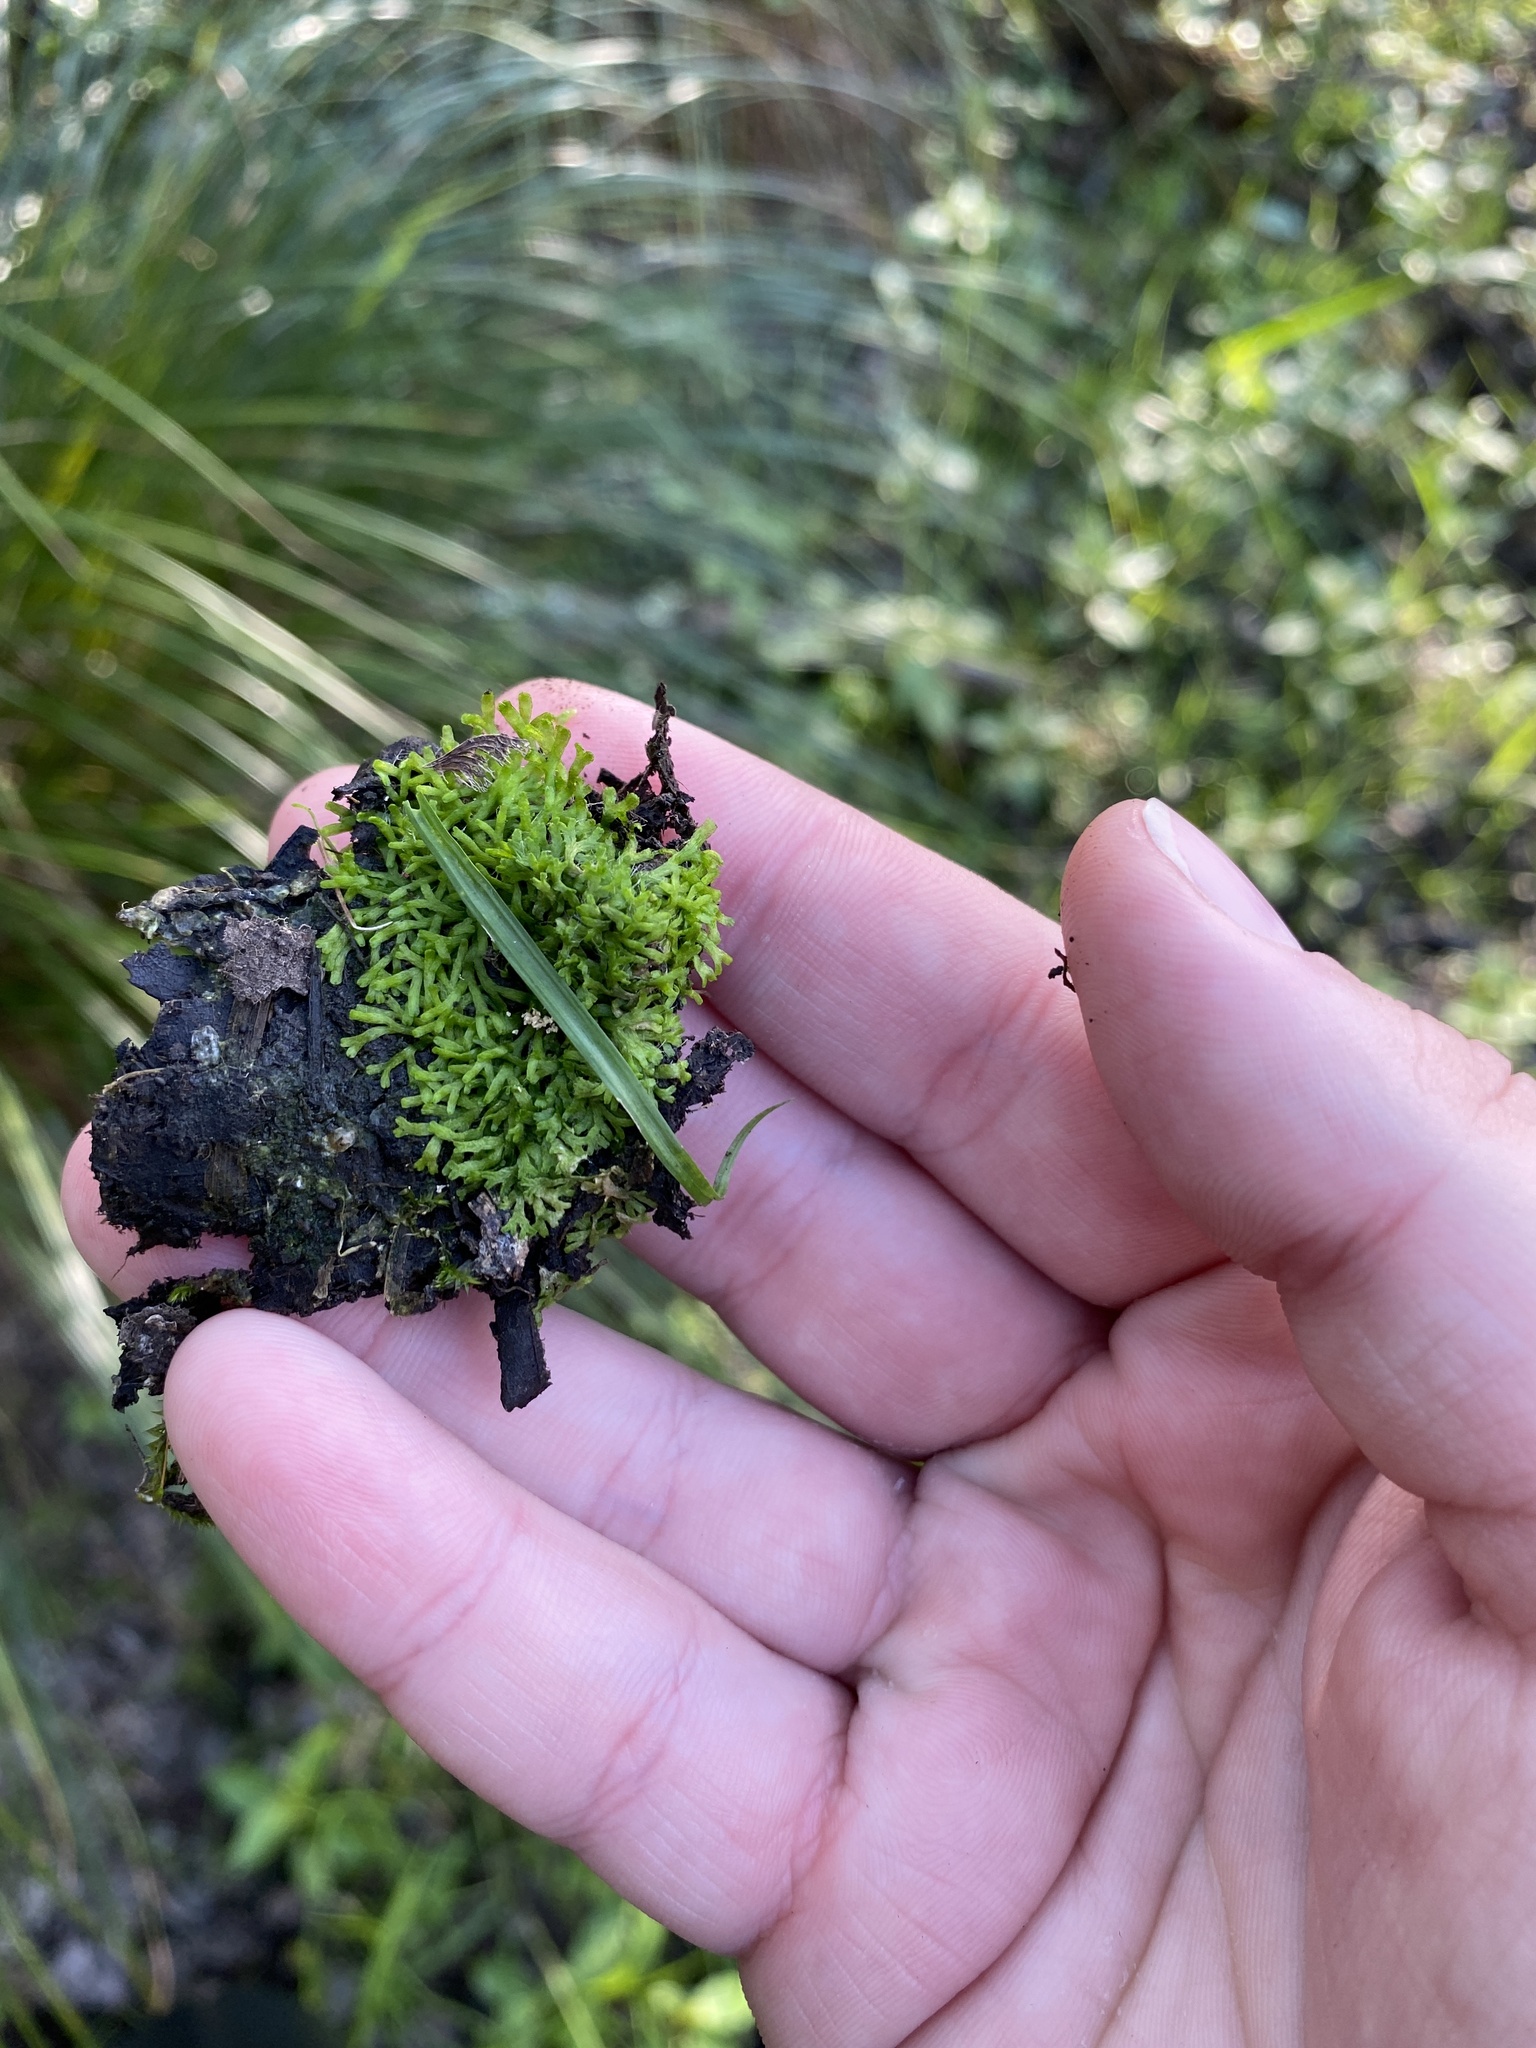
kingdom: Plantae
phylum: Marchantiophyta
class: Marchantiopsida
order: Marchantiales
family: Ricciaceae
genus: Riccia
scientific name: Riccia fluitans
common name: Floating crystalwort
